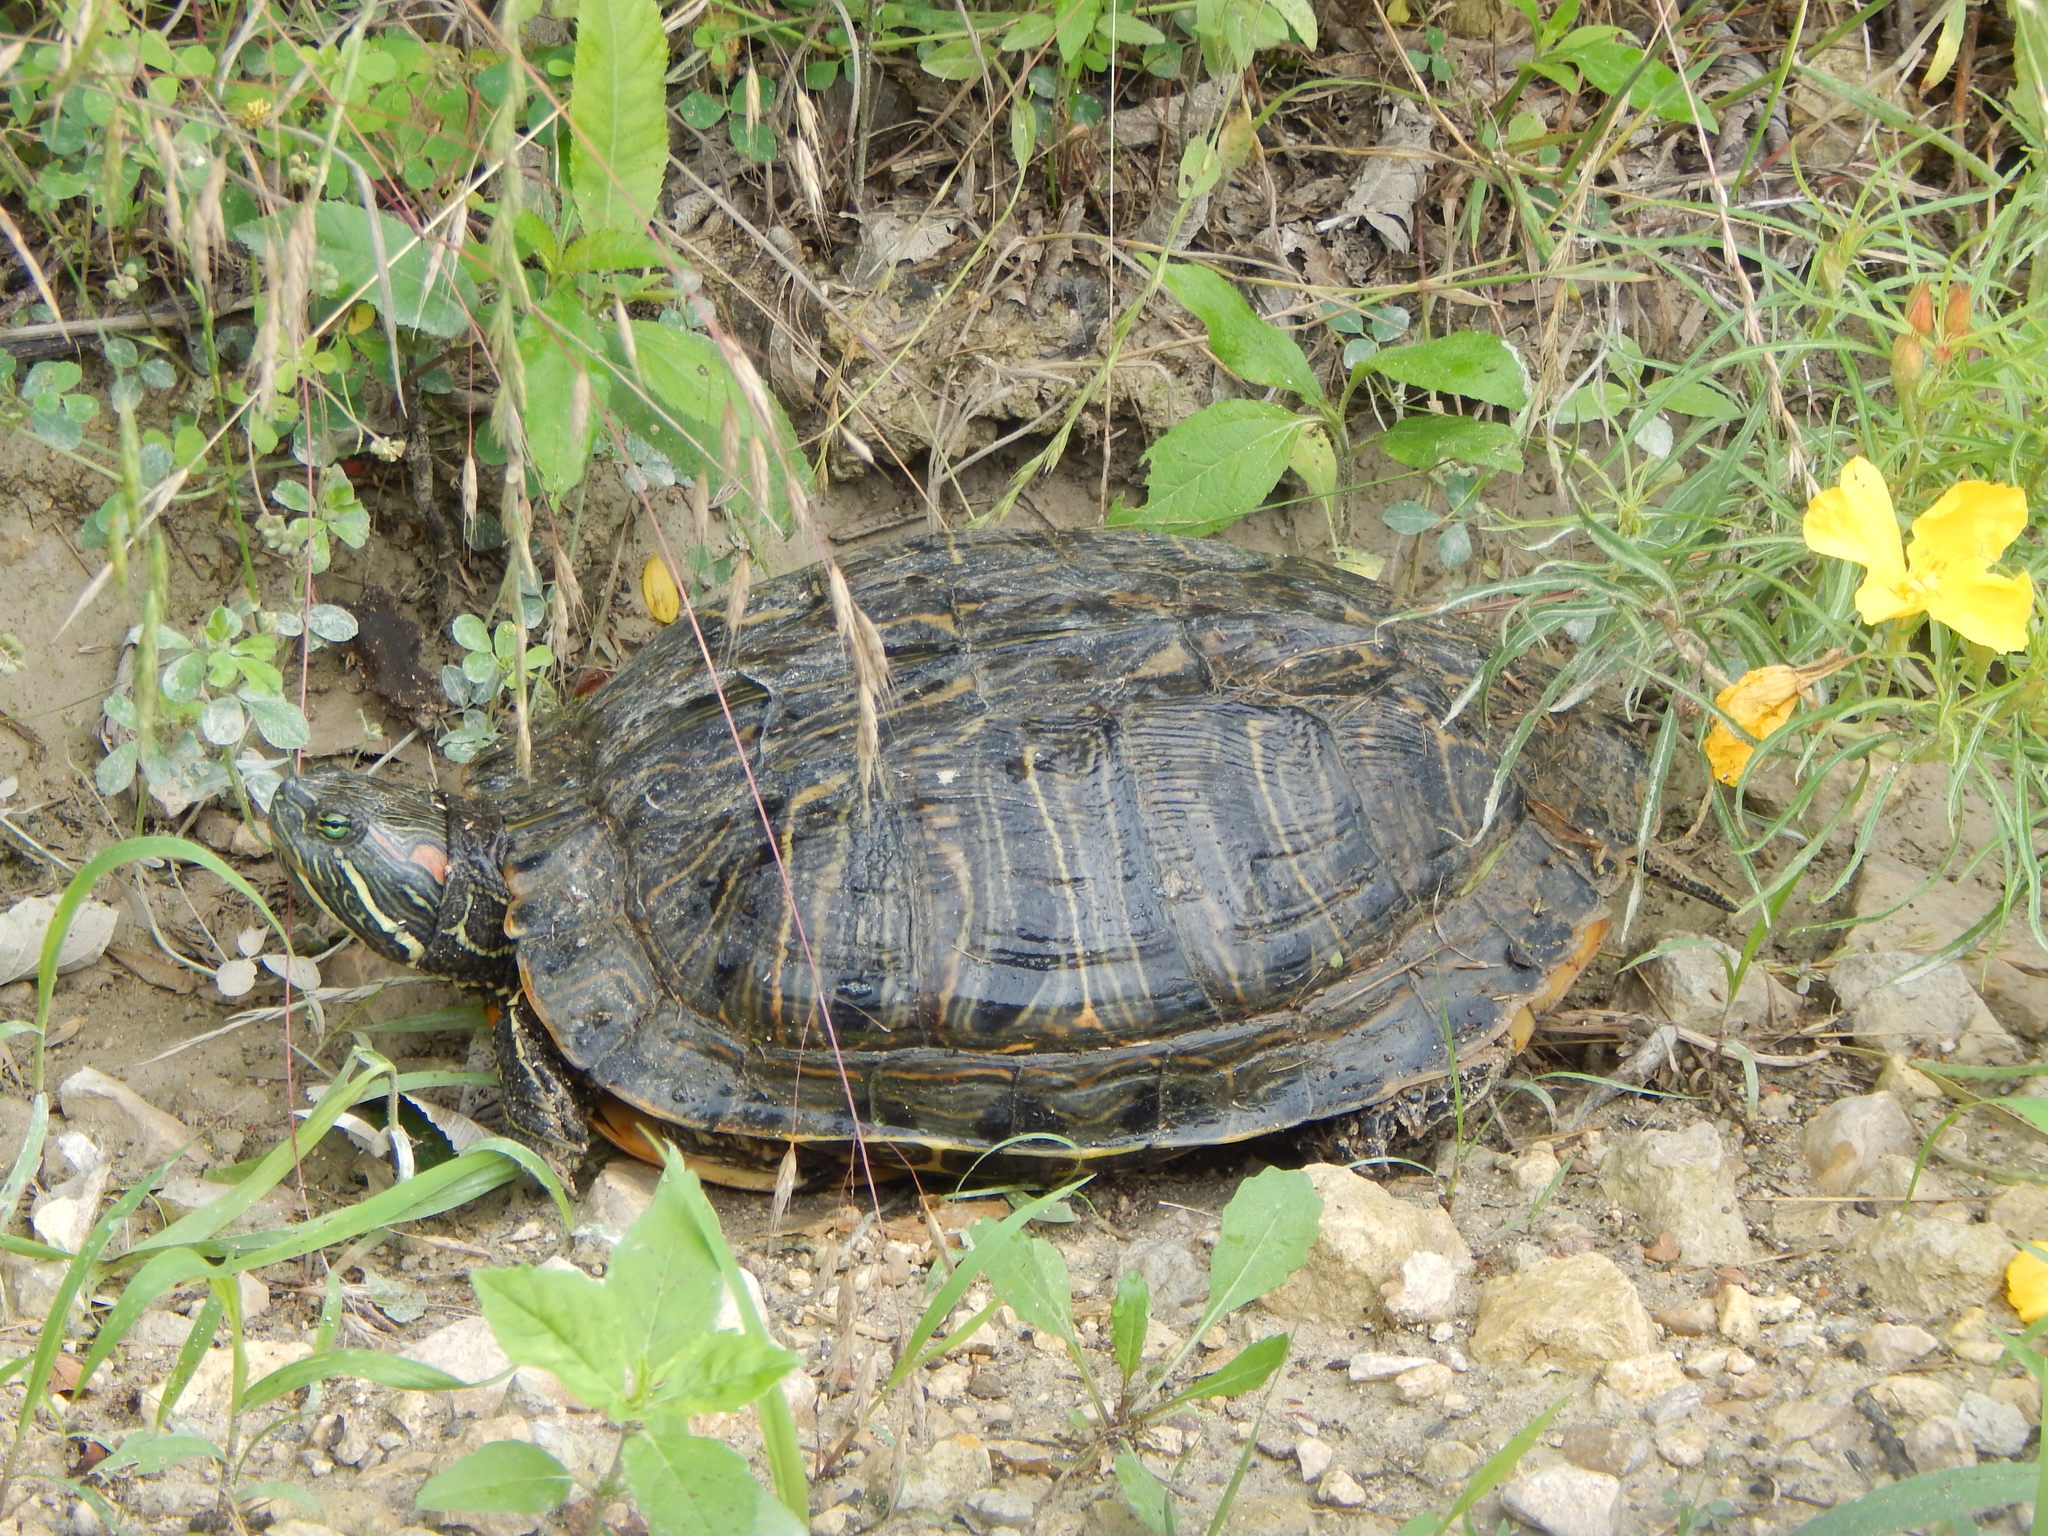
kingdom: Animalia
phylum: Chordata
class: Testudines
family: Emydidae
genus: Trachemys
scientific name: Trachemys scripta
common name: Slider
